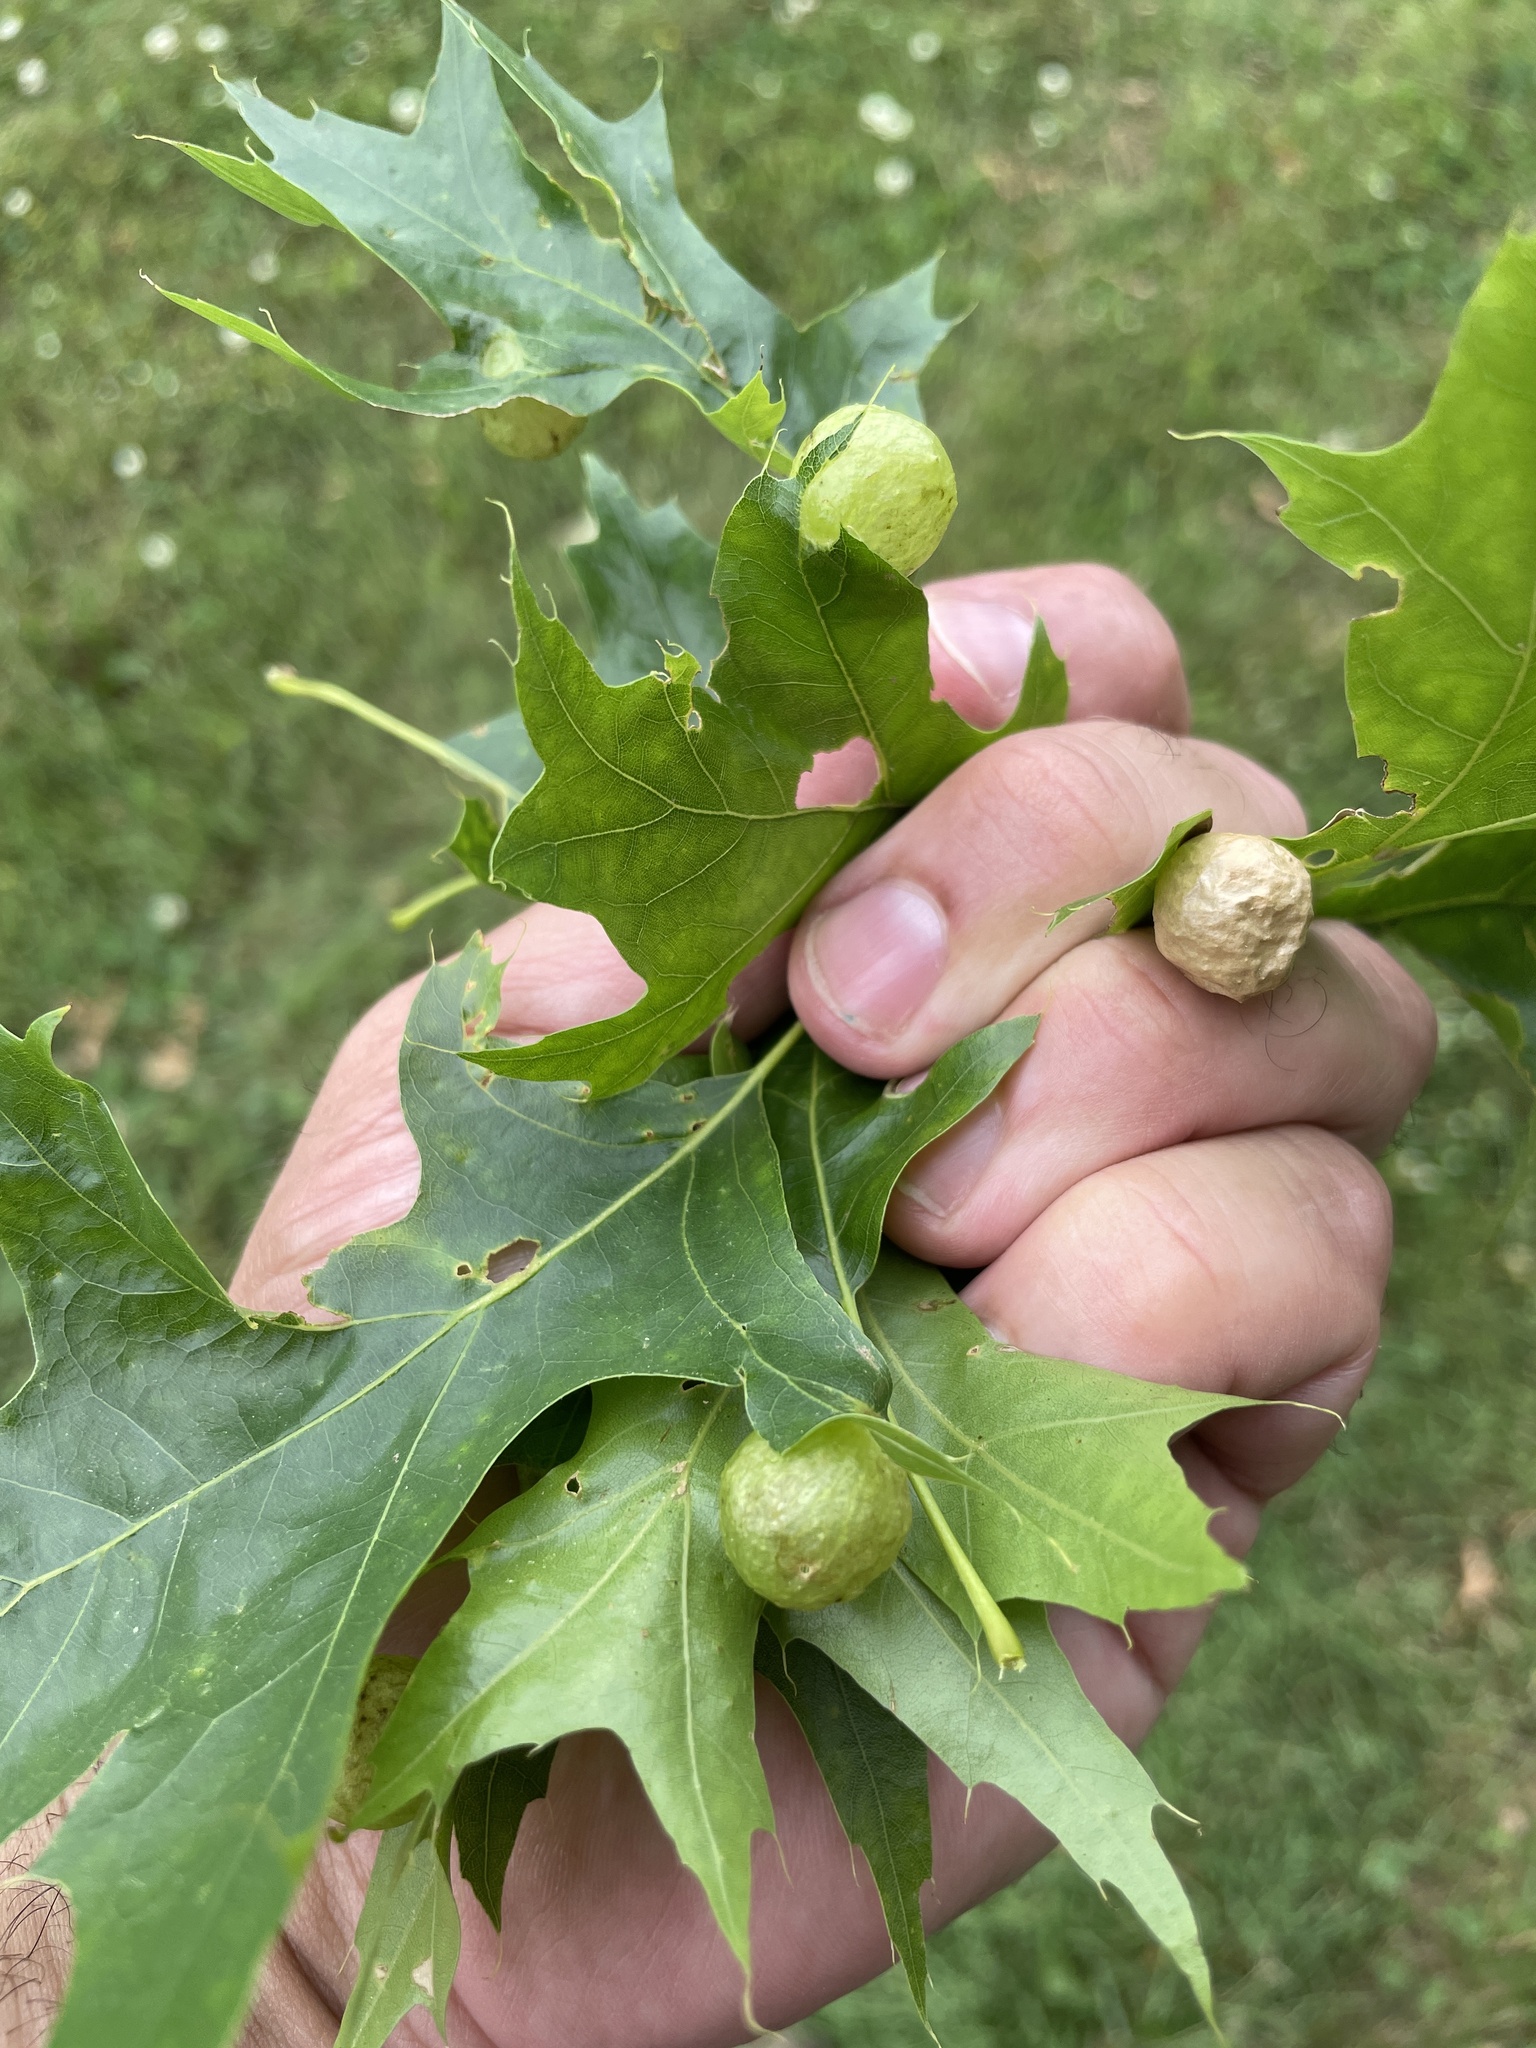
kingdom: Animalia
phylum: Arthropoda
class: Insecta
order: Hymenoptera
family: Cynipidae
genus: Amphibolips
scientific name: Amphibolips
